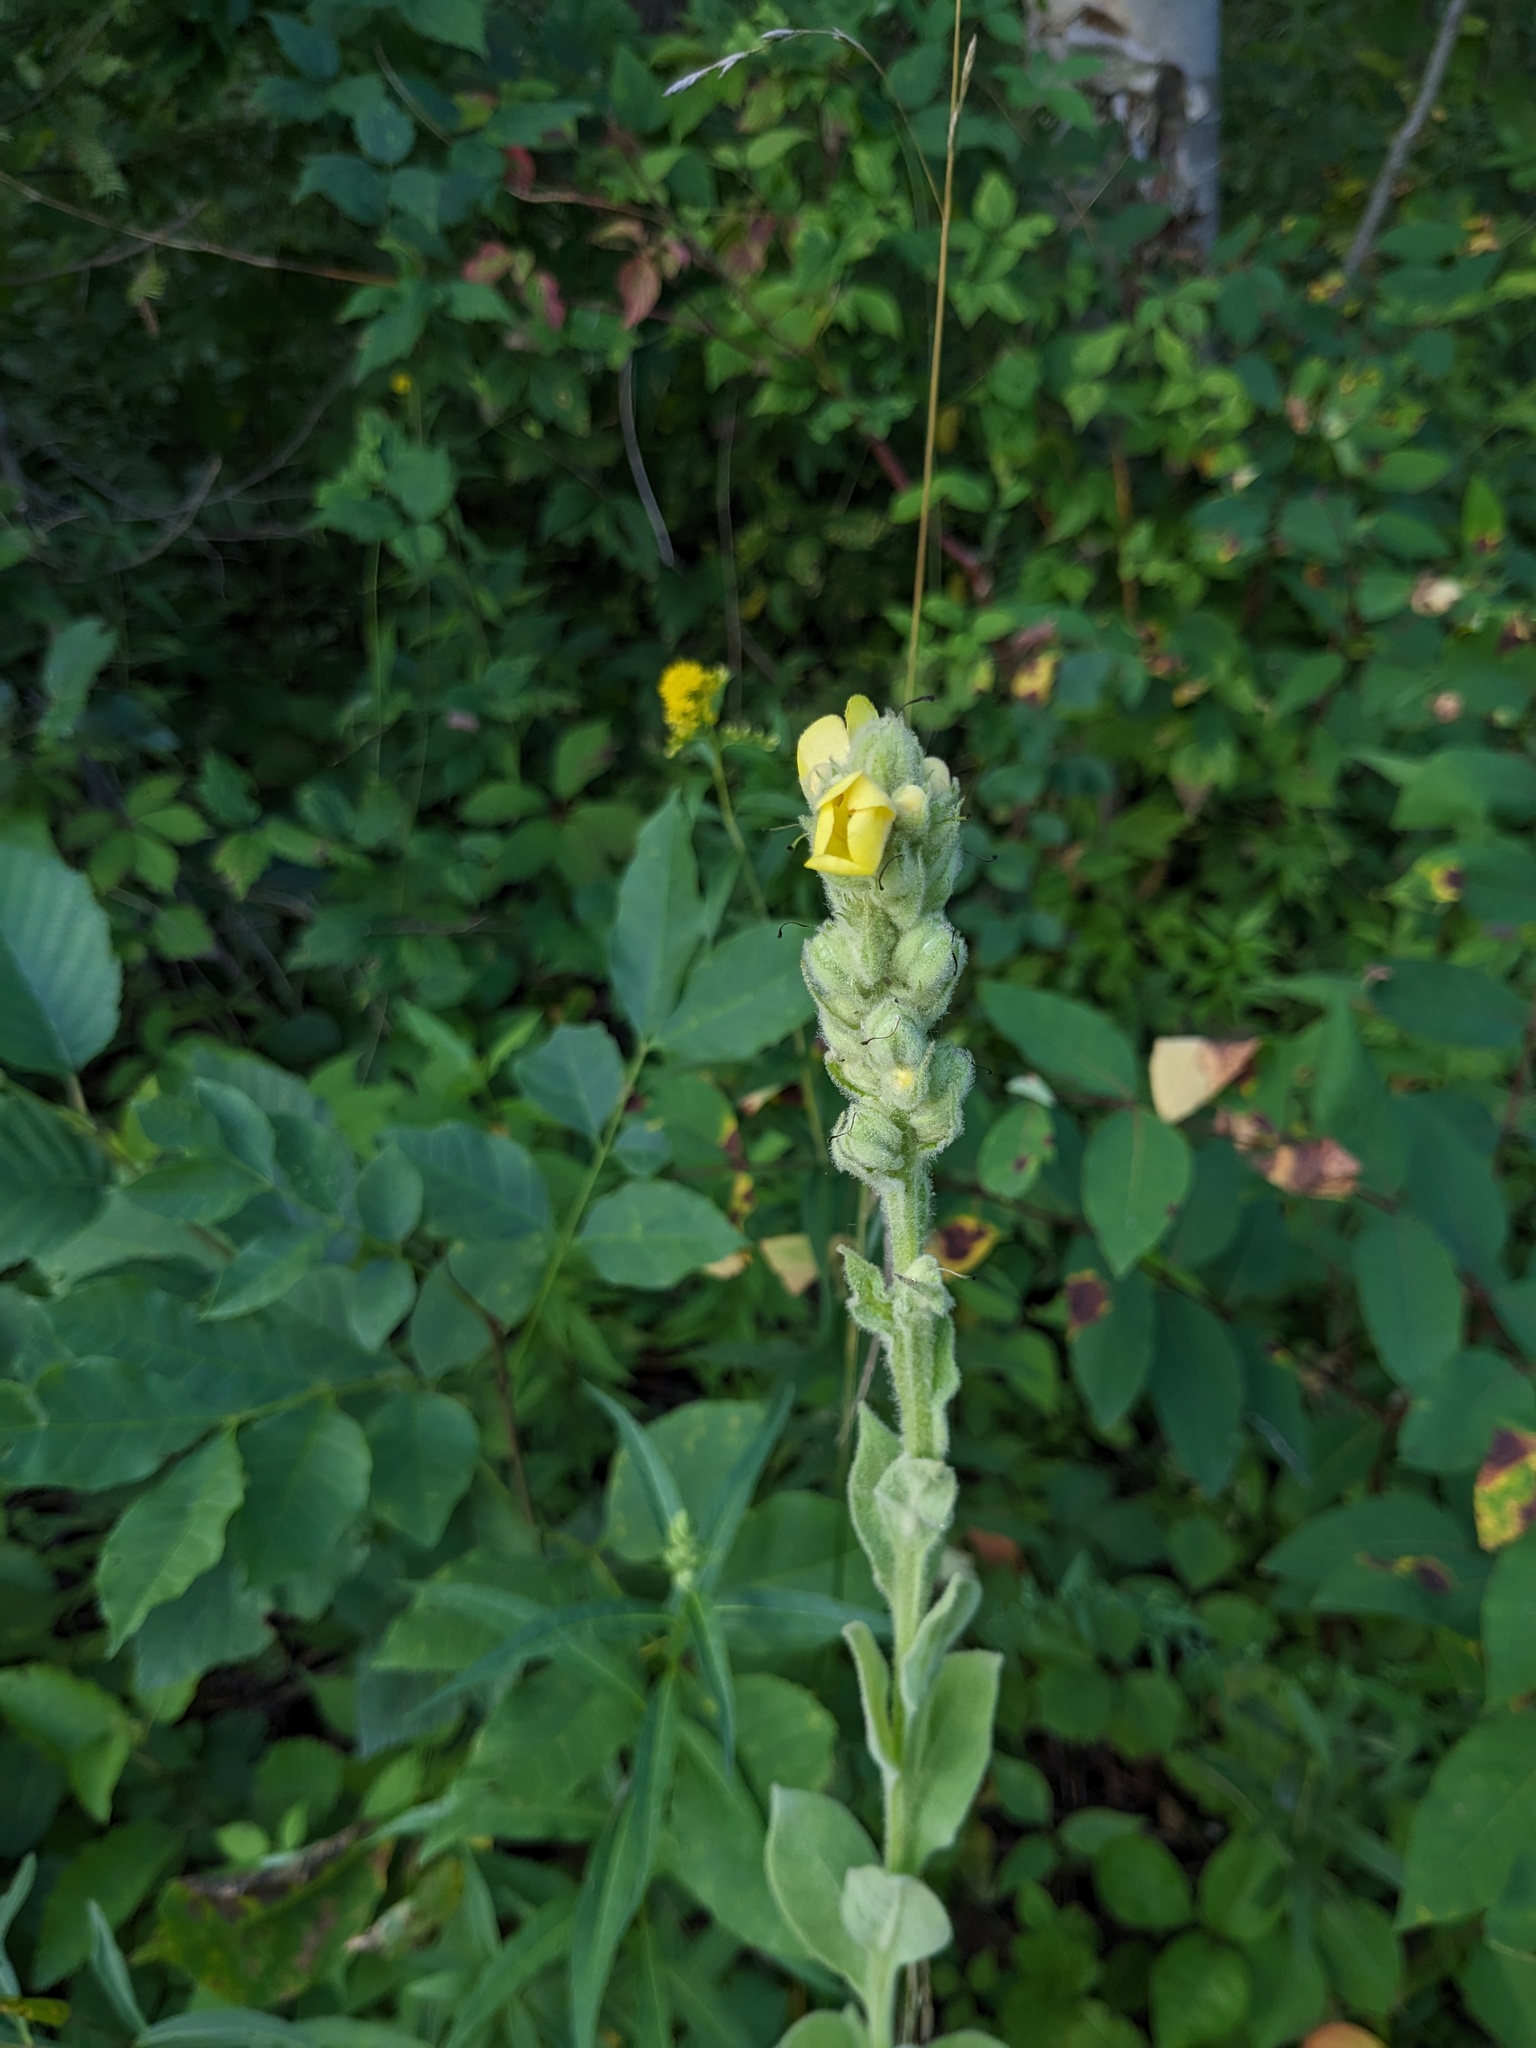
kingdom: Plantae
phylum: Tracheophyta
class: Magnoliopsida
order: Lamiales
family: Scrophulariaceae
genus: Verbascum
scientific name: Verbascum thapsus
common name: Common mullein
